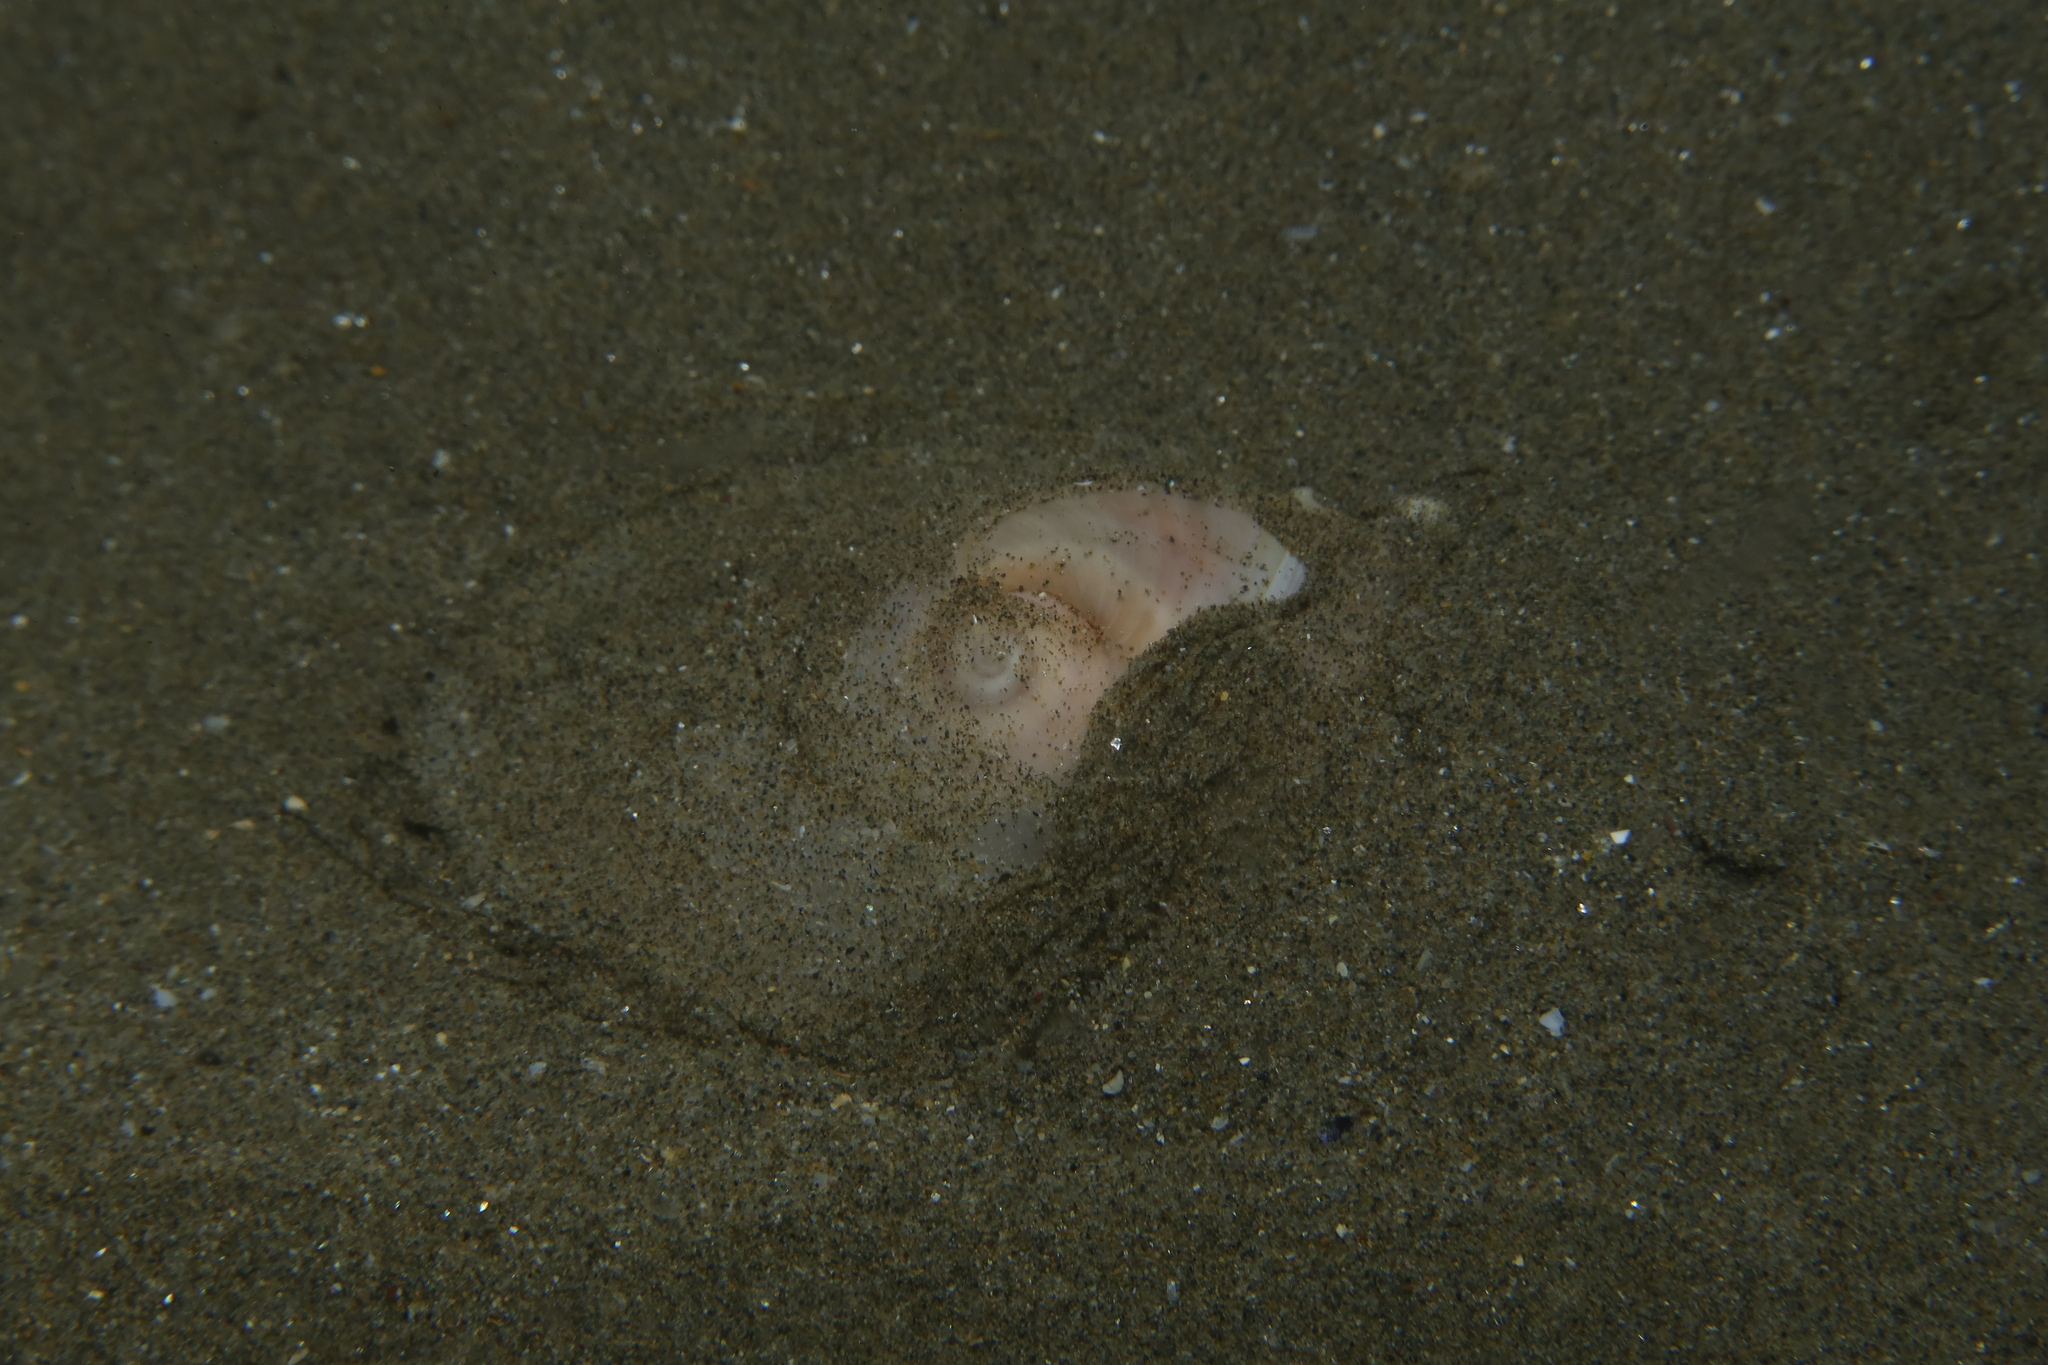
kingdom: Animalia
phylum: Mollusca
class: Gastropoda
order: Littorinimorpha
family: Naticidae
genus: Neverita
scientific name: Neverita josephinia
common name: Josephine's moonsnail
